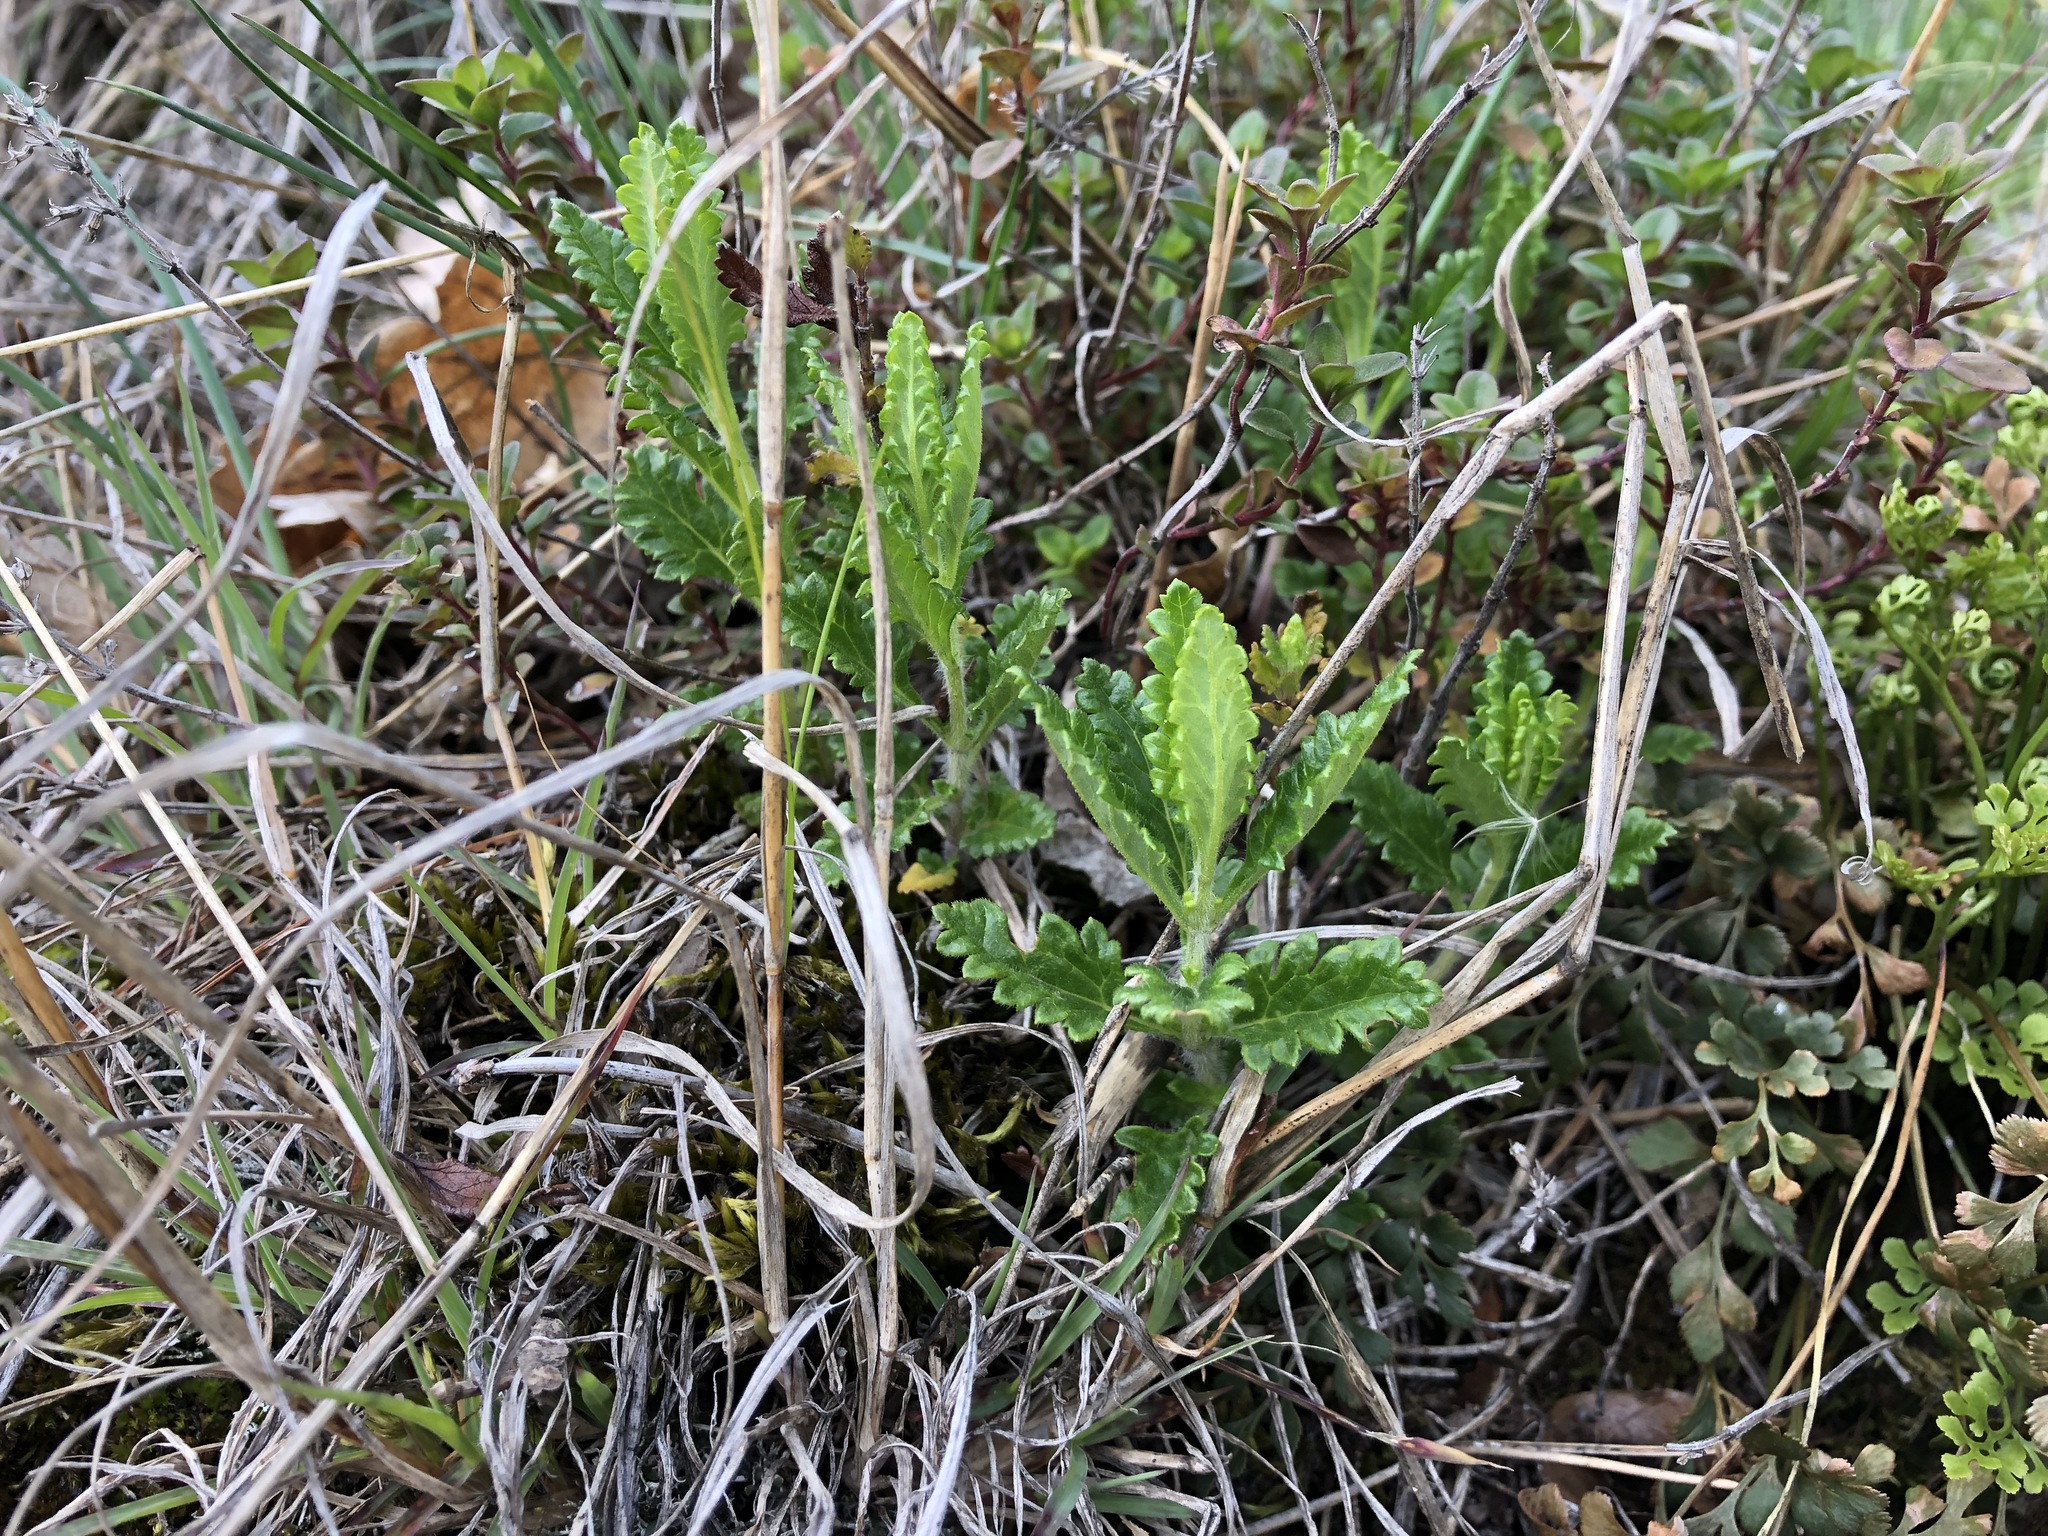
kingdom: Plantae
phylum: Tracheophyta
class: Magnoliopsida
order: Lamiales
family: Lamiaceae
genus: Teucrium
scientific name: Teucrium chamaedrys
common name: Wall germander
